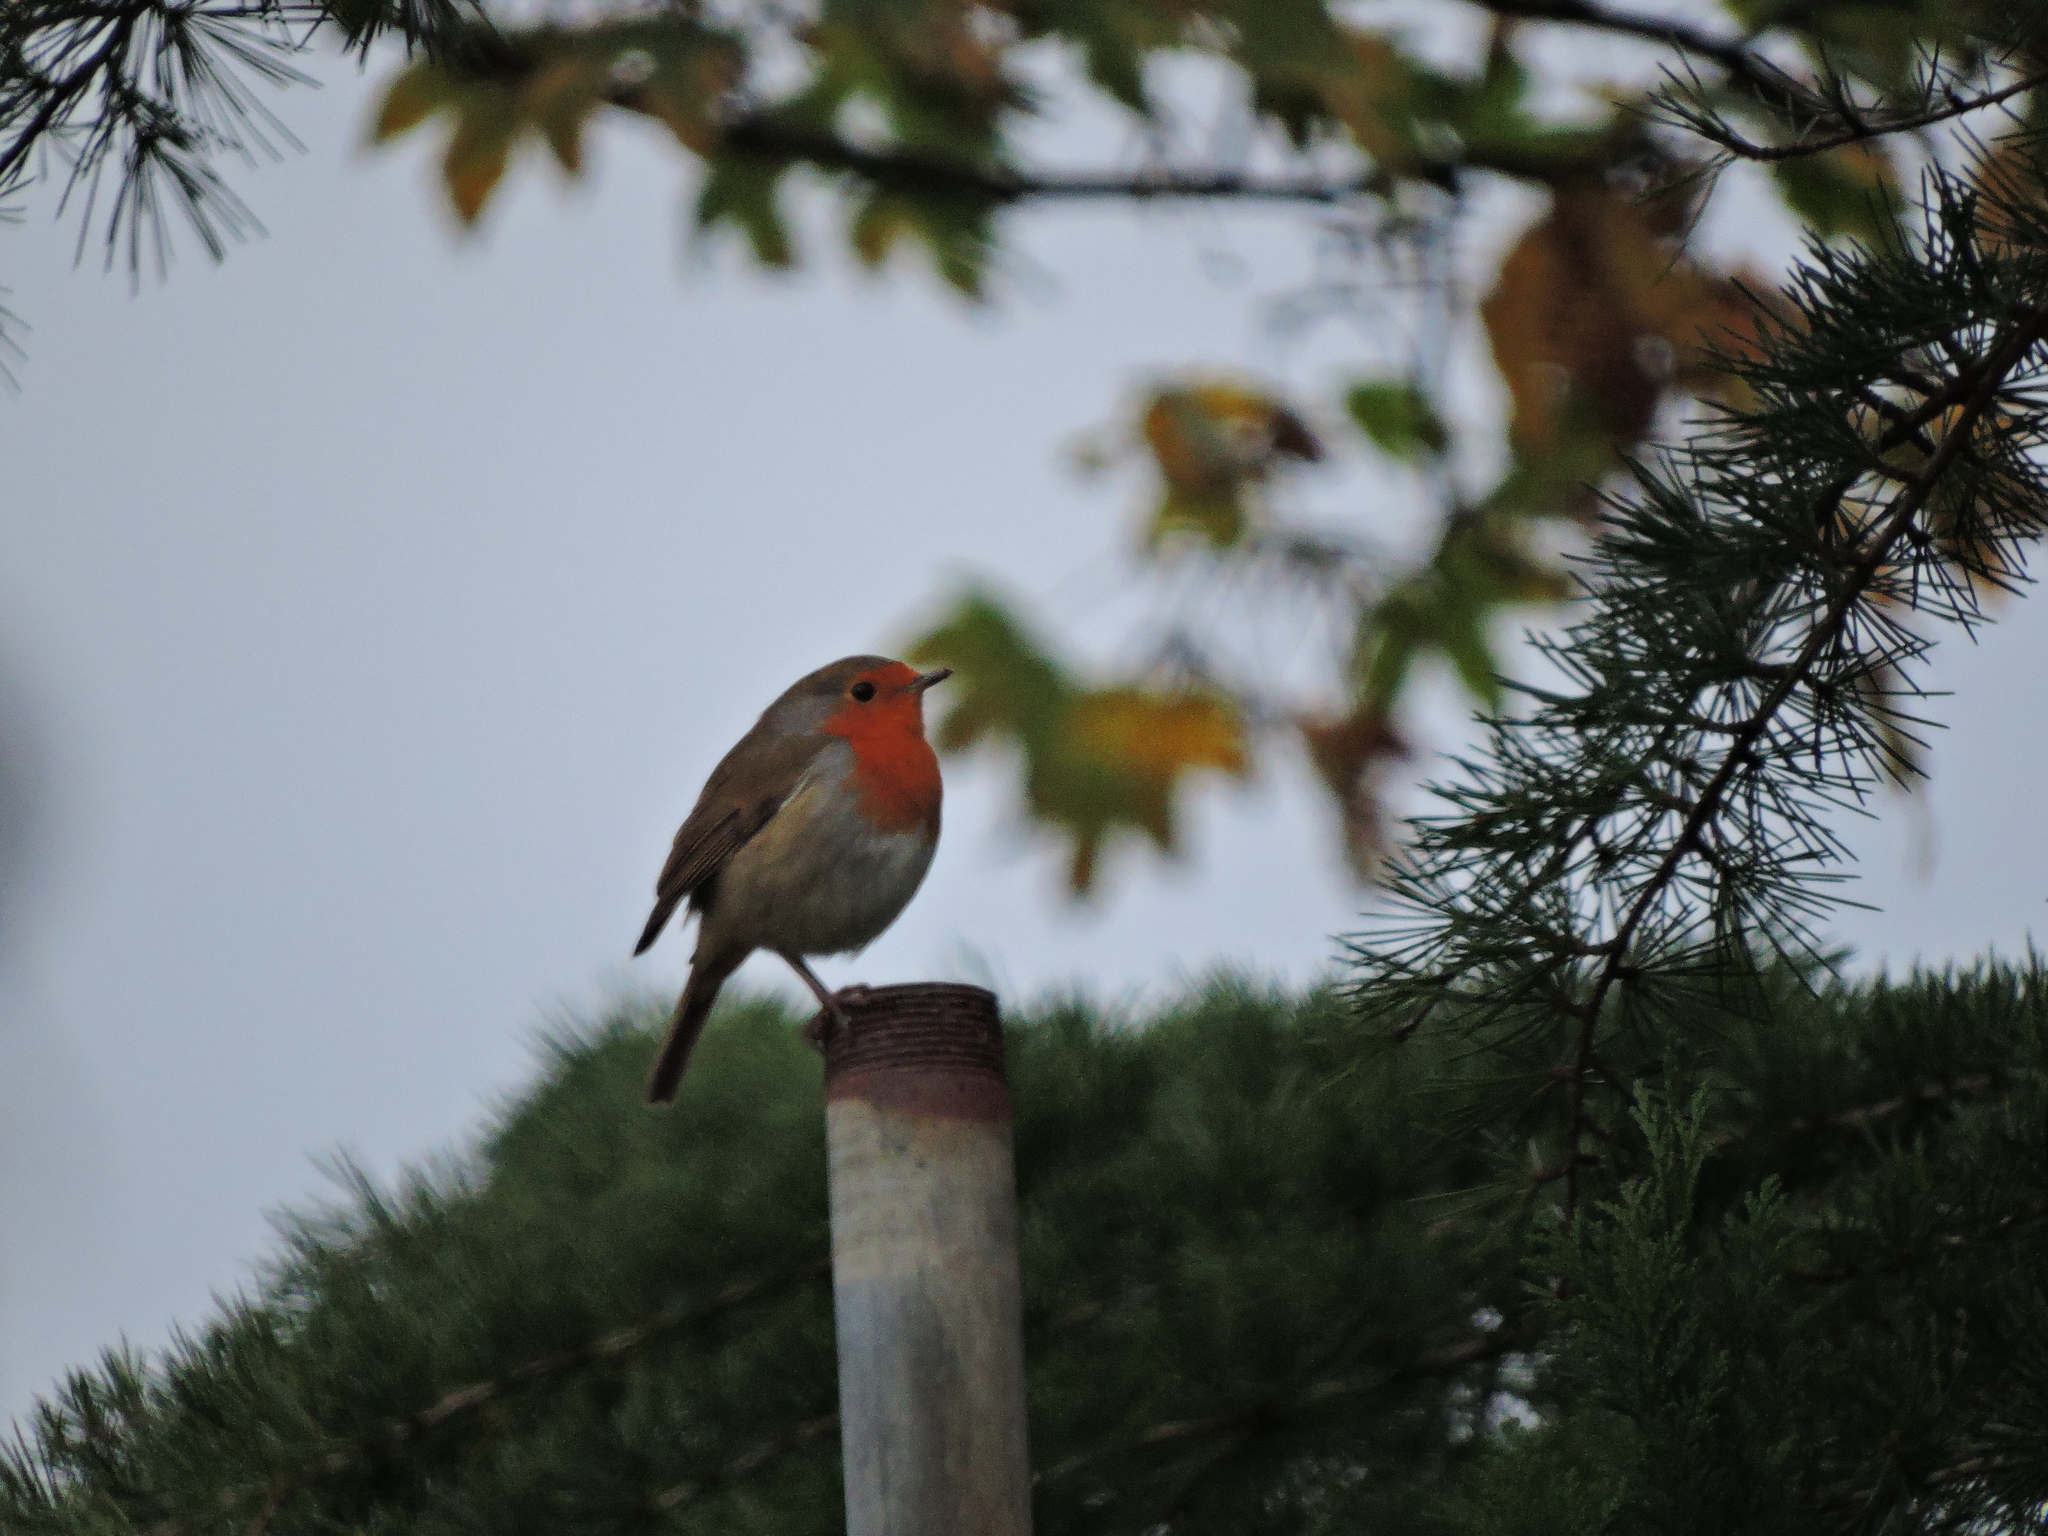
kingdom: Animalia
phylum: Chordata
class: Aves
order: Passeriformes
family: Muscicapidae
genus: Erithacus
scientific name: Erithacus rubecula
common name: European robin
